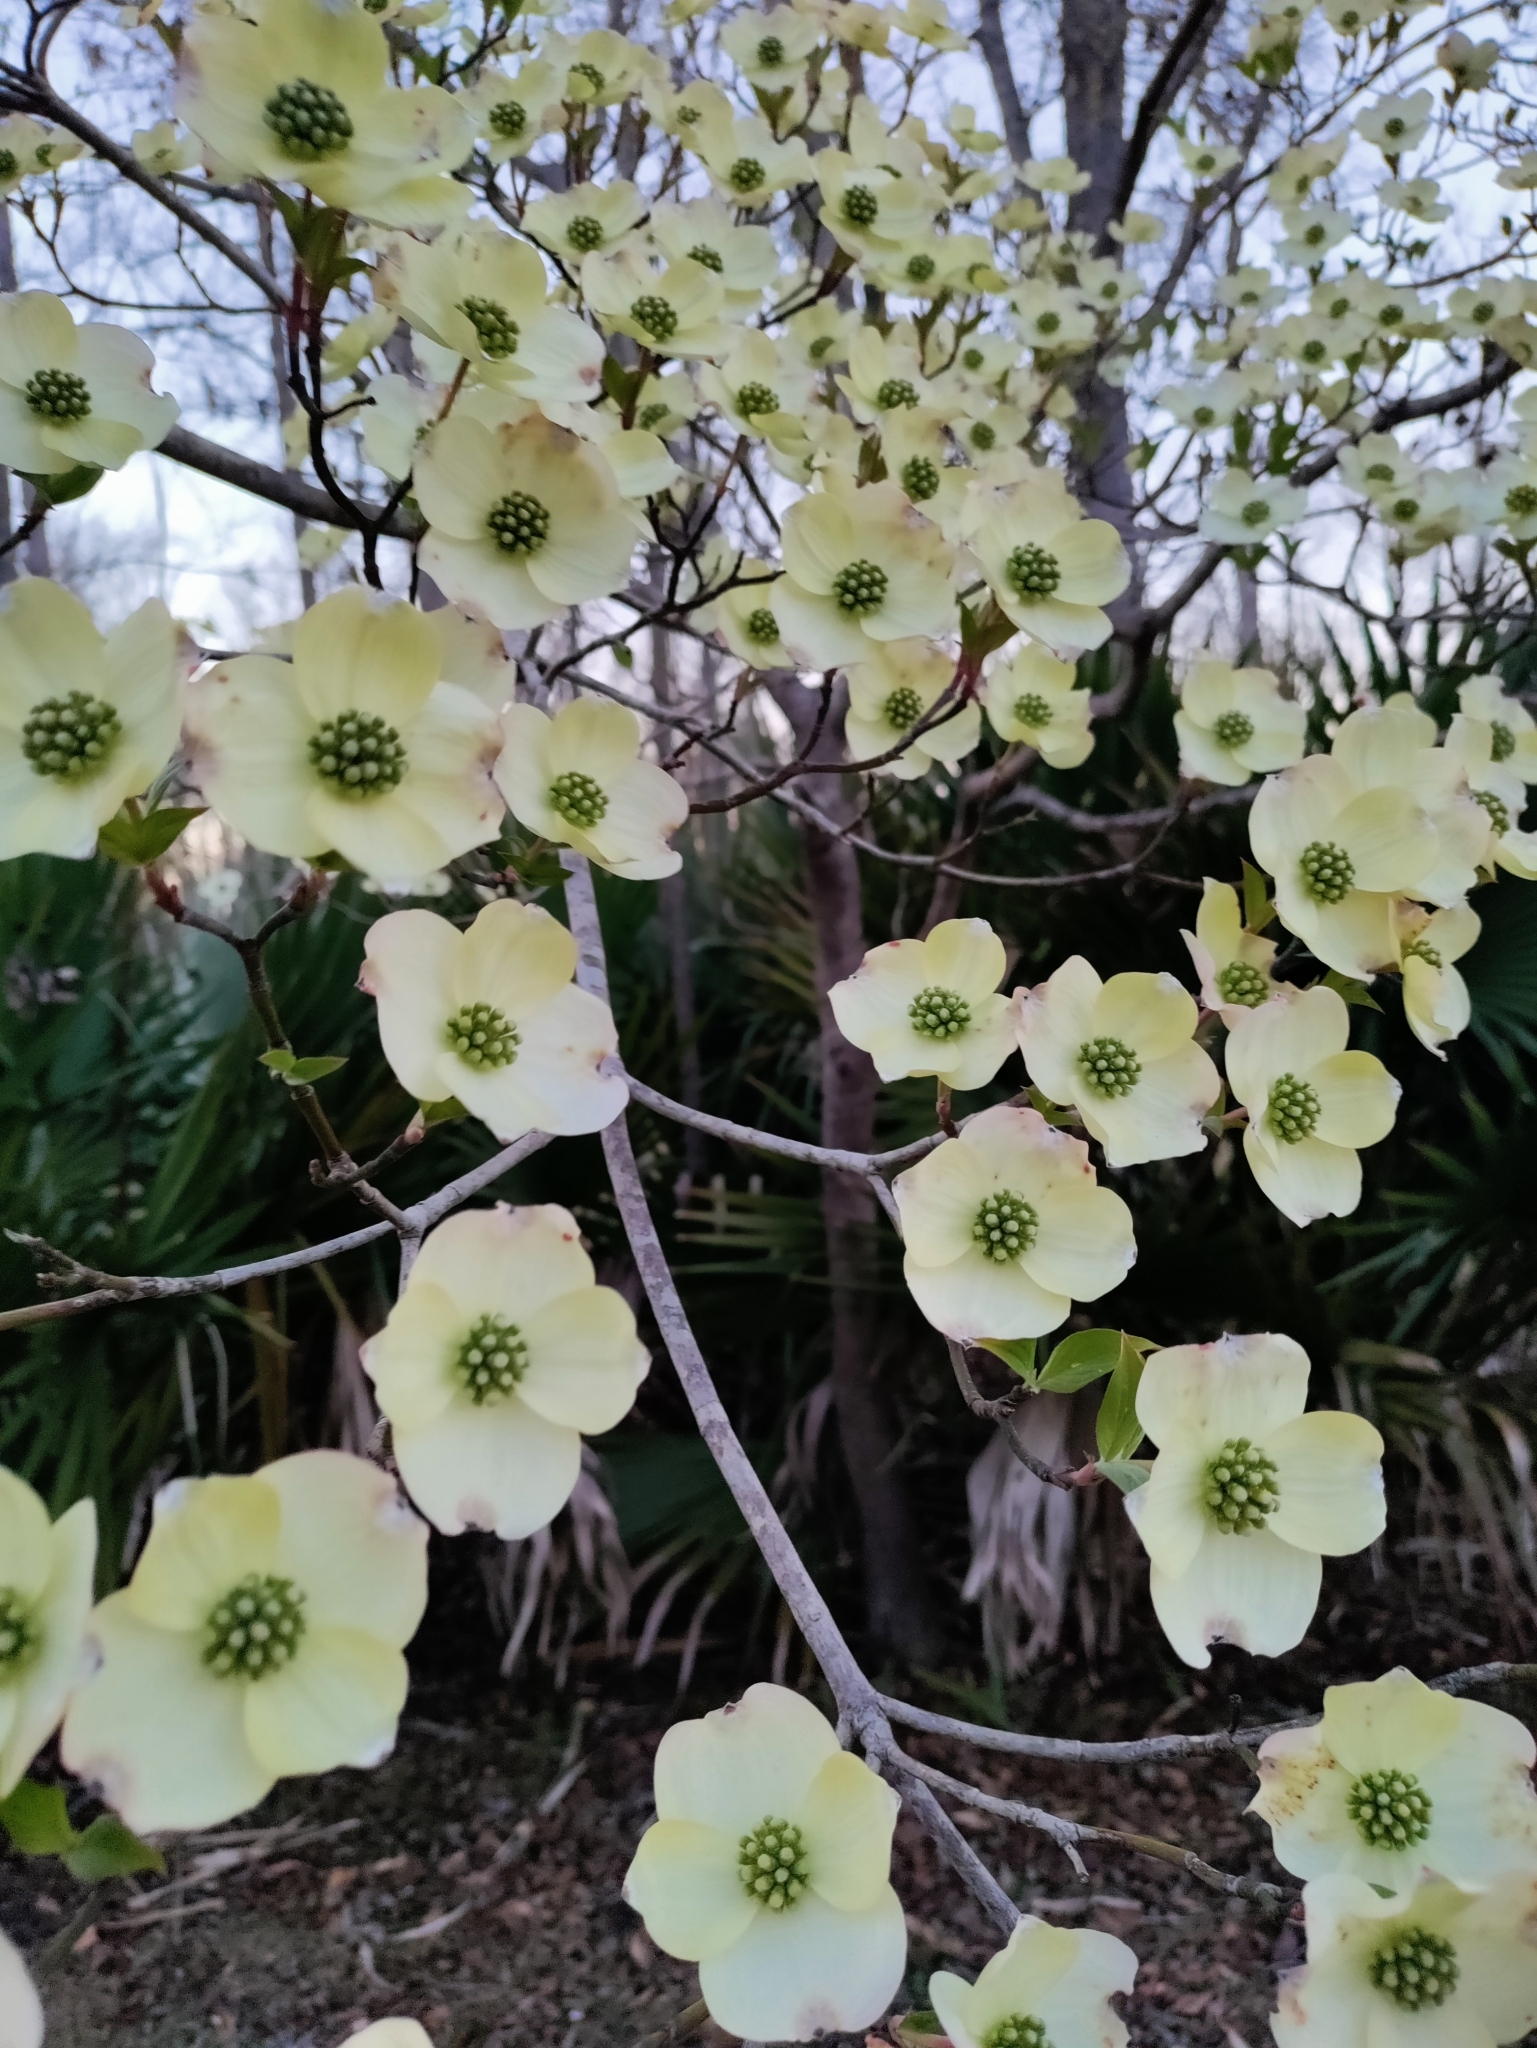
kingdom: Plantae
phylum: Tracheophyta
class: Magnoliopsida
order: Cornales
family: Cornaceae
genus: Cornus
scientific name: Cornus florida
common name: Flowering dogwood
